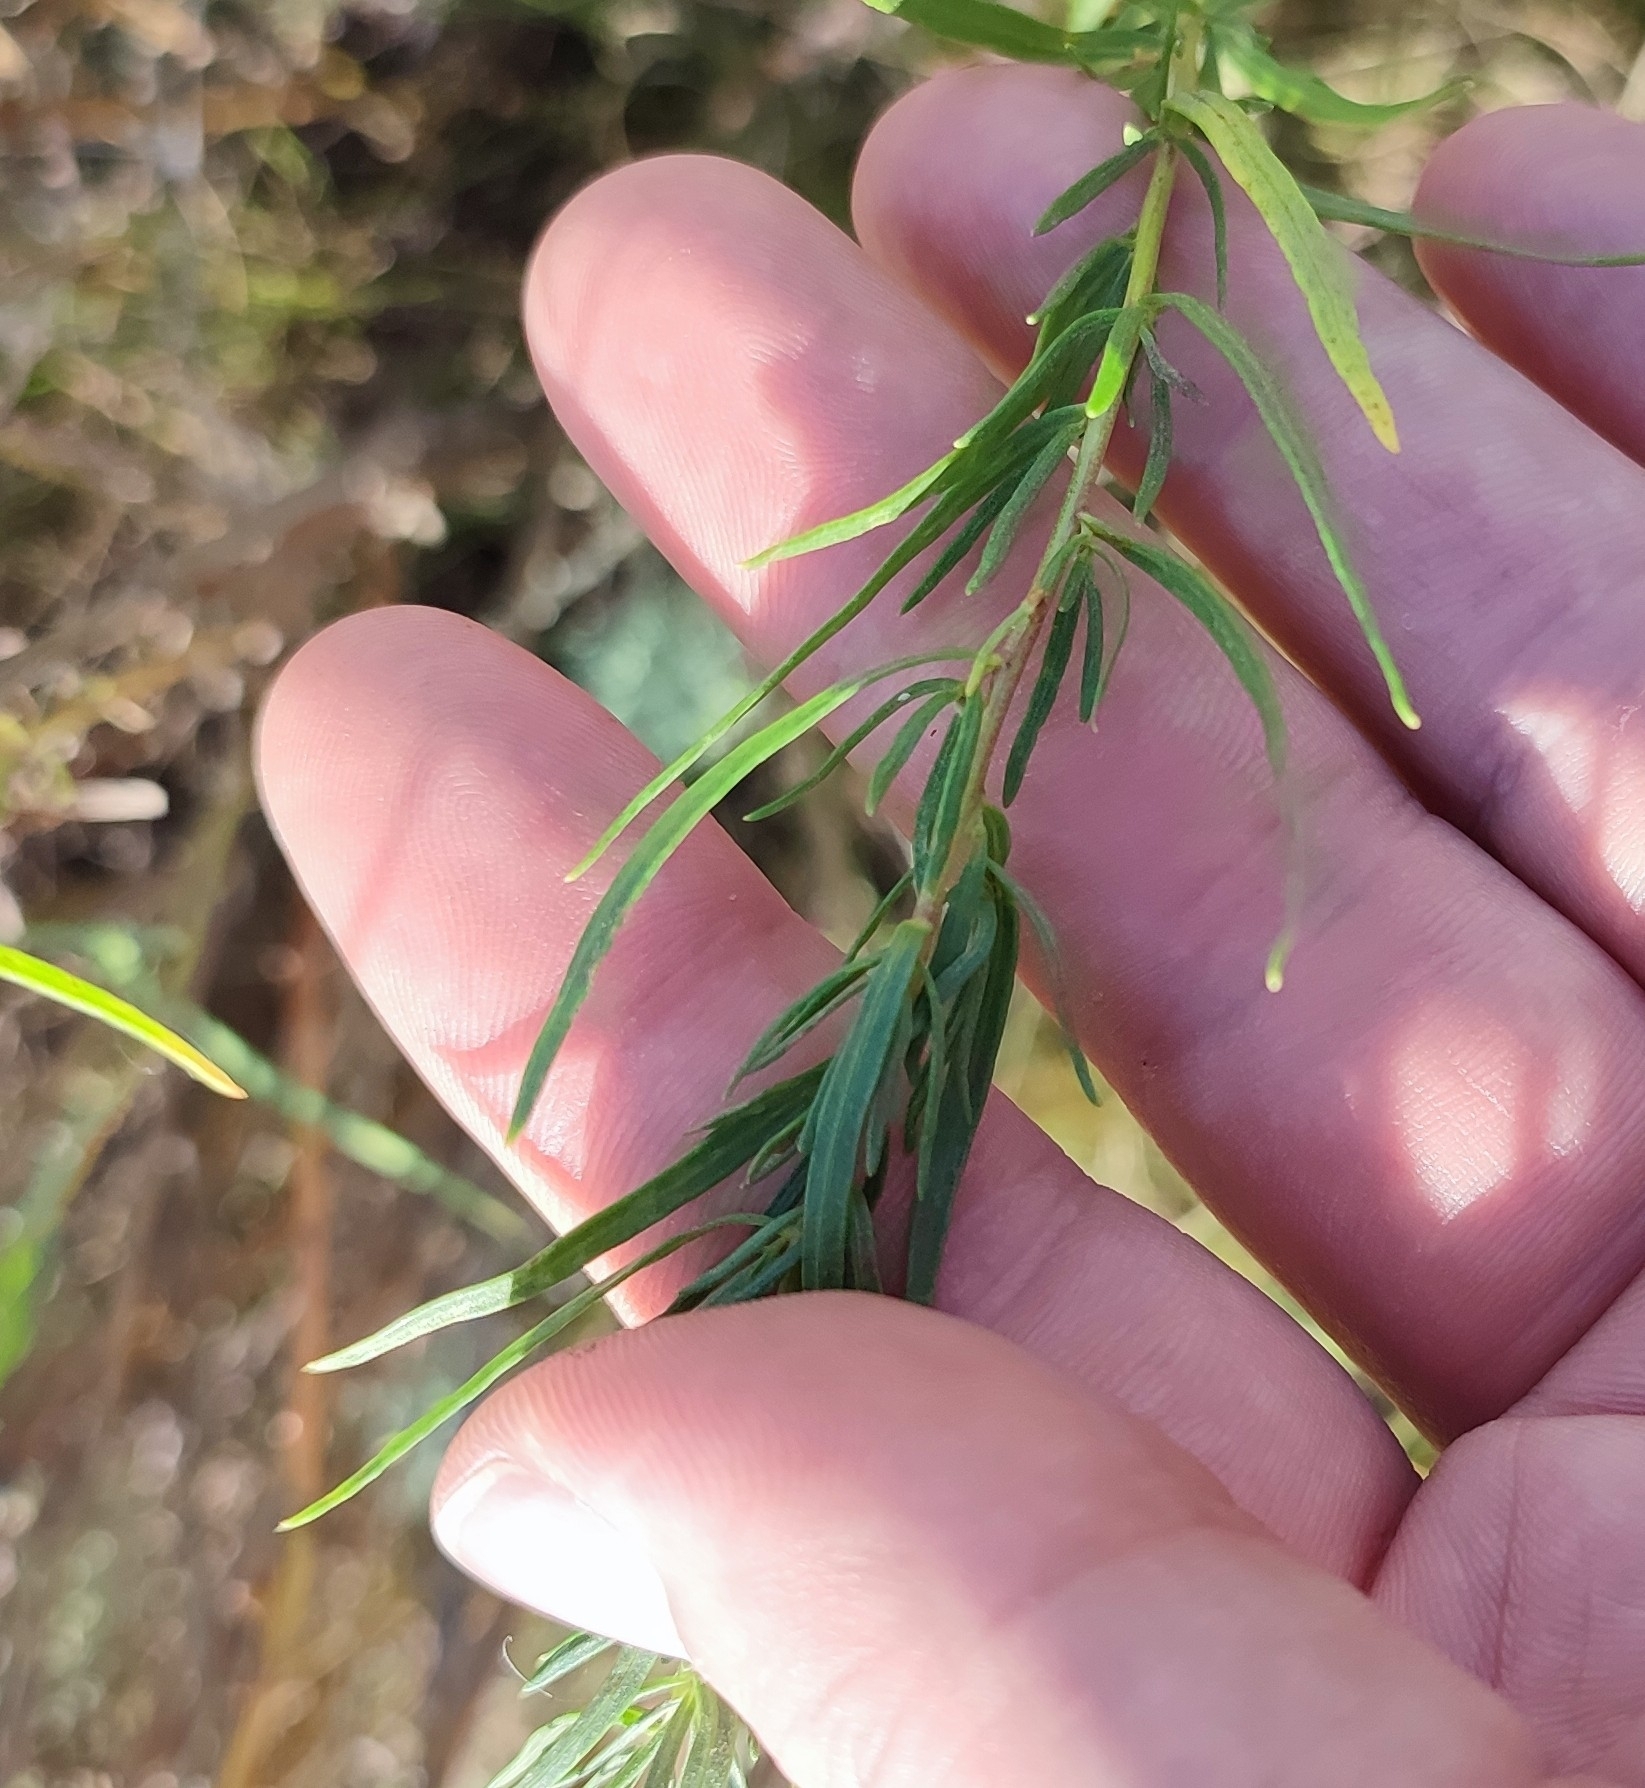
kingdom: Plantae
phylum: Tracheophyta
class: Magnoliopsida
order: Asterales
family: Asteraceae
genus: Artemisia
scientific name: Artemisia dracunculus
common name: Tarragon
